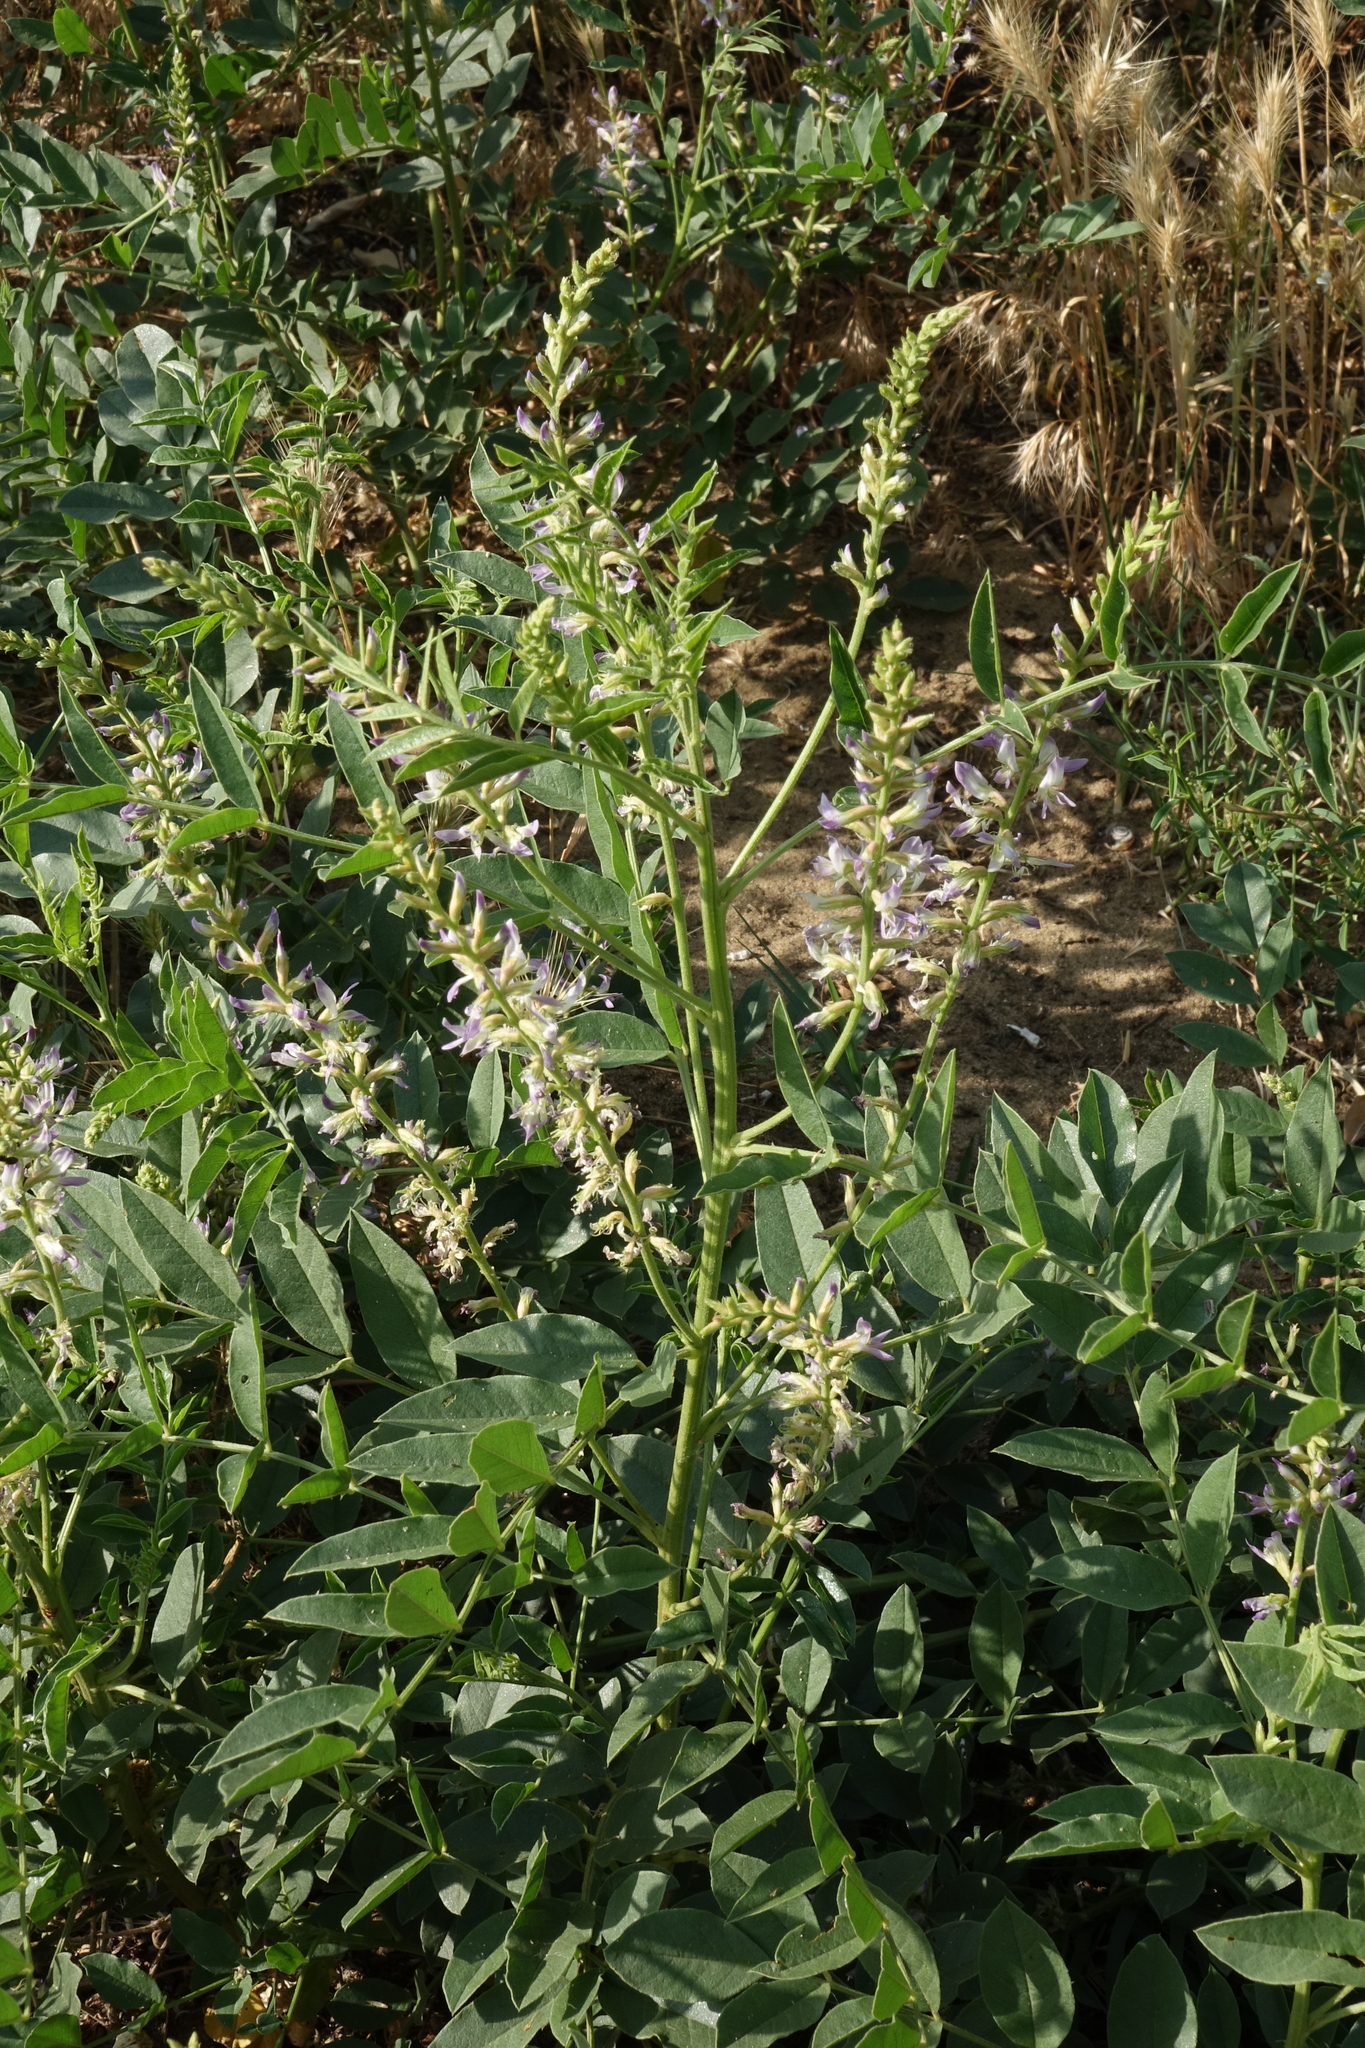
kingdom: Plantae
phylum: Tracheophyta
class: Magnoliopsida
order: Fabales
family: Fabaceae
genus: Glycyrrhiza
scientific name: Glycyrrhiza glabra
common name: Liquorice
